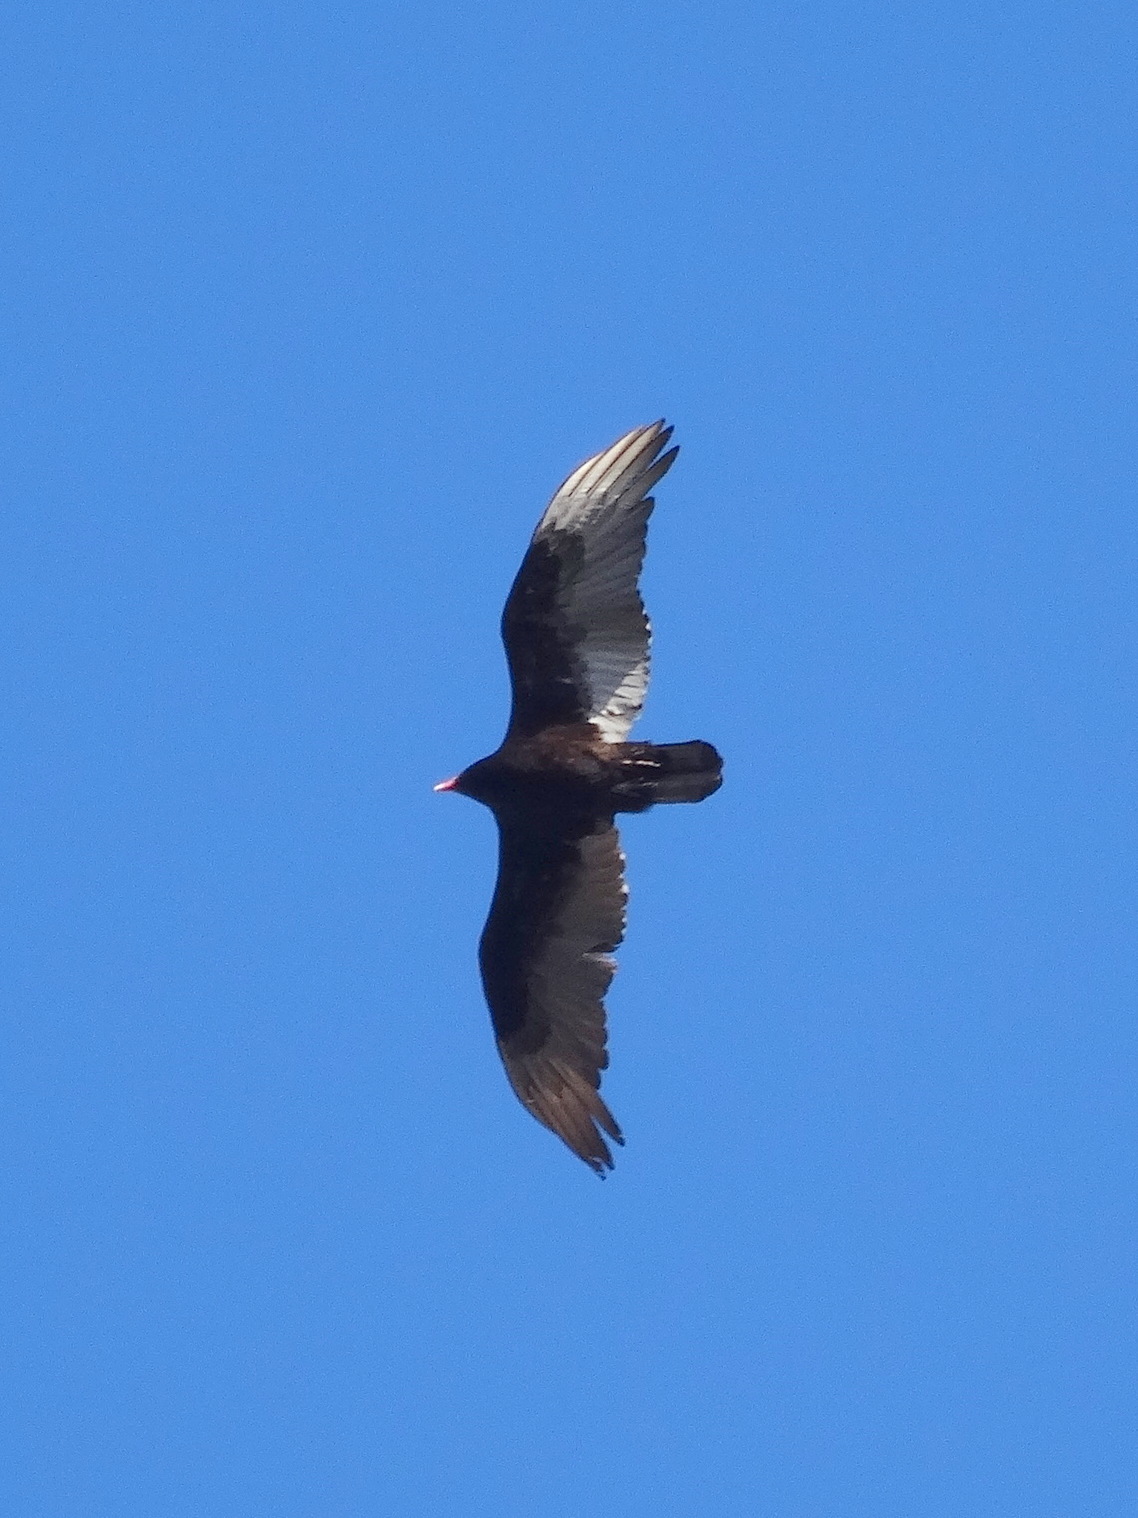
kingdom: Animalia
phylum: Chordata
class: Aves
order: Accipitriformes
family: Cathartidae
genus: Cathartes
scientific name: Cathartes aura
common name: Turkey vulture
